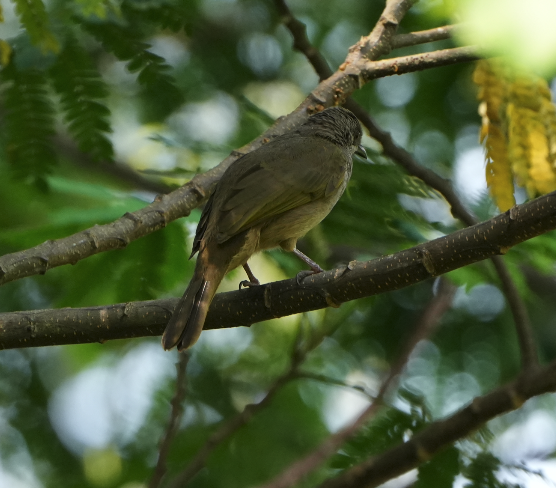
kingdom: Animalia
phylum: Chordata
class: Aves
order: Passeriformes
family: Pycnonotidae
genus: Pycnonotus
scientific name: Pycnonotus plumosus
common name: Olive-winged bulbul
